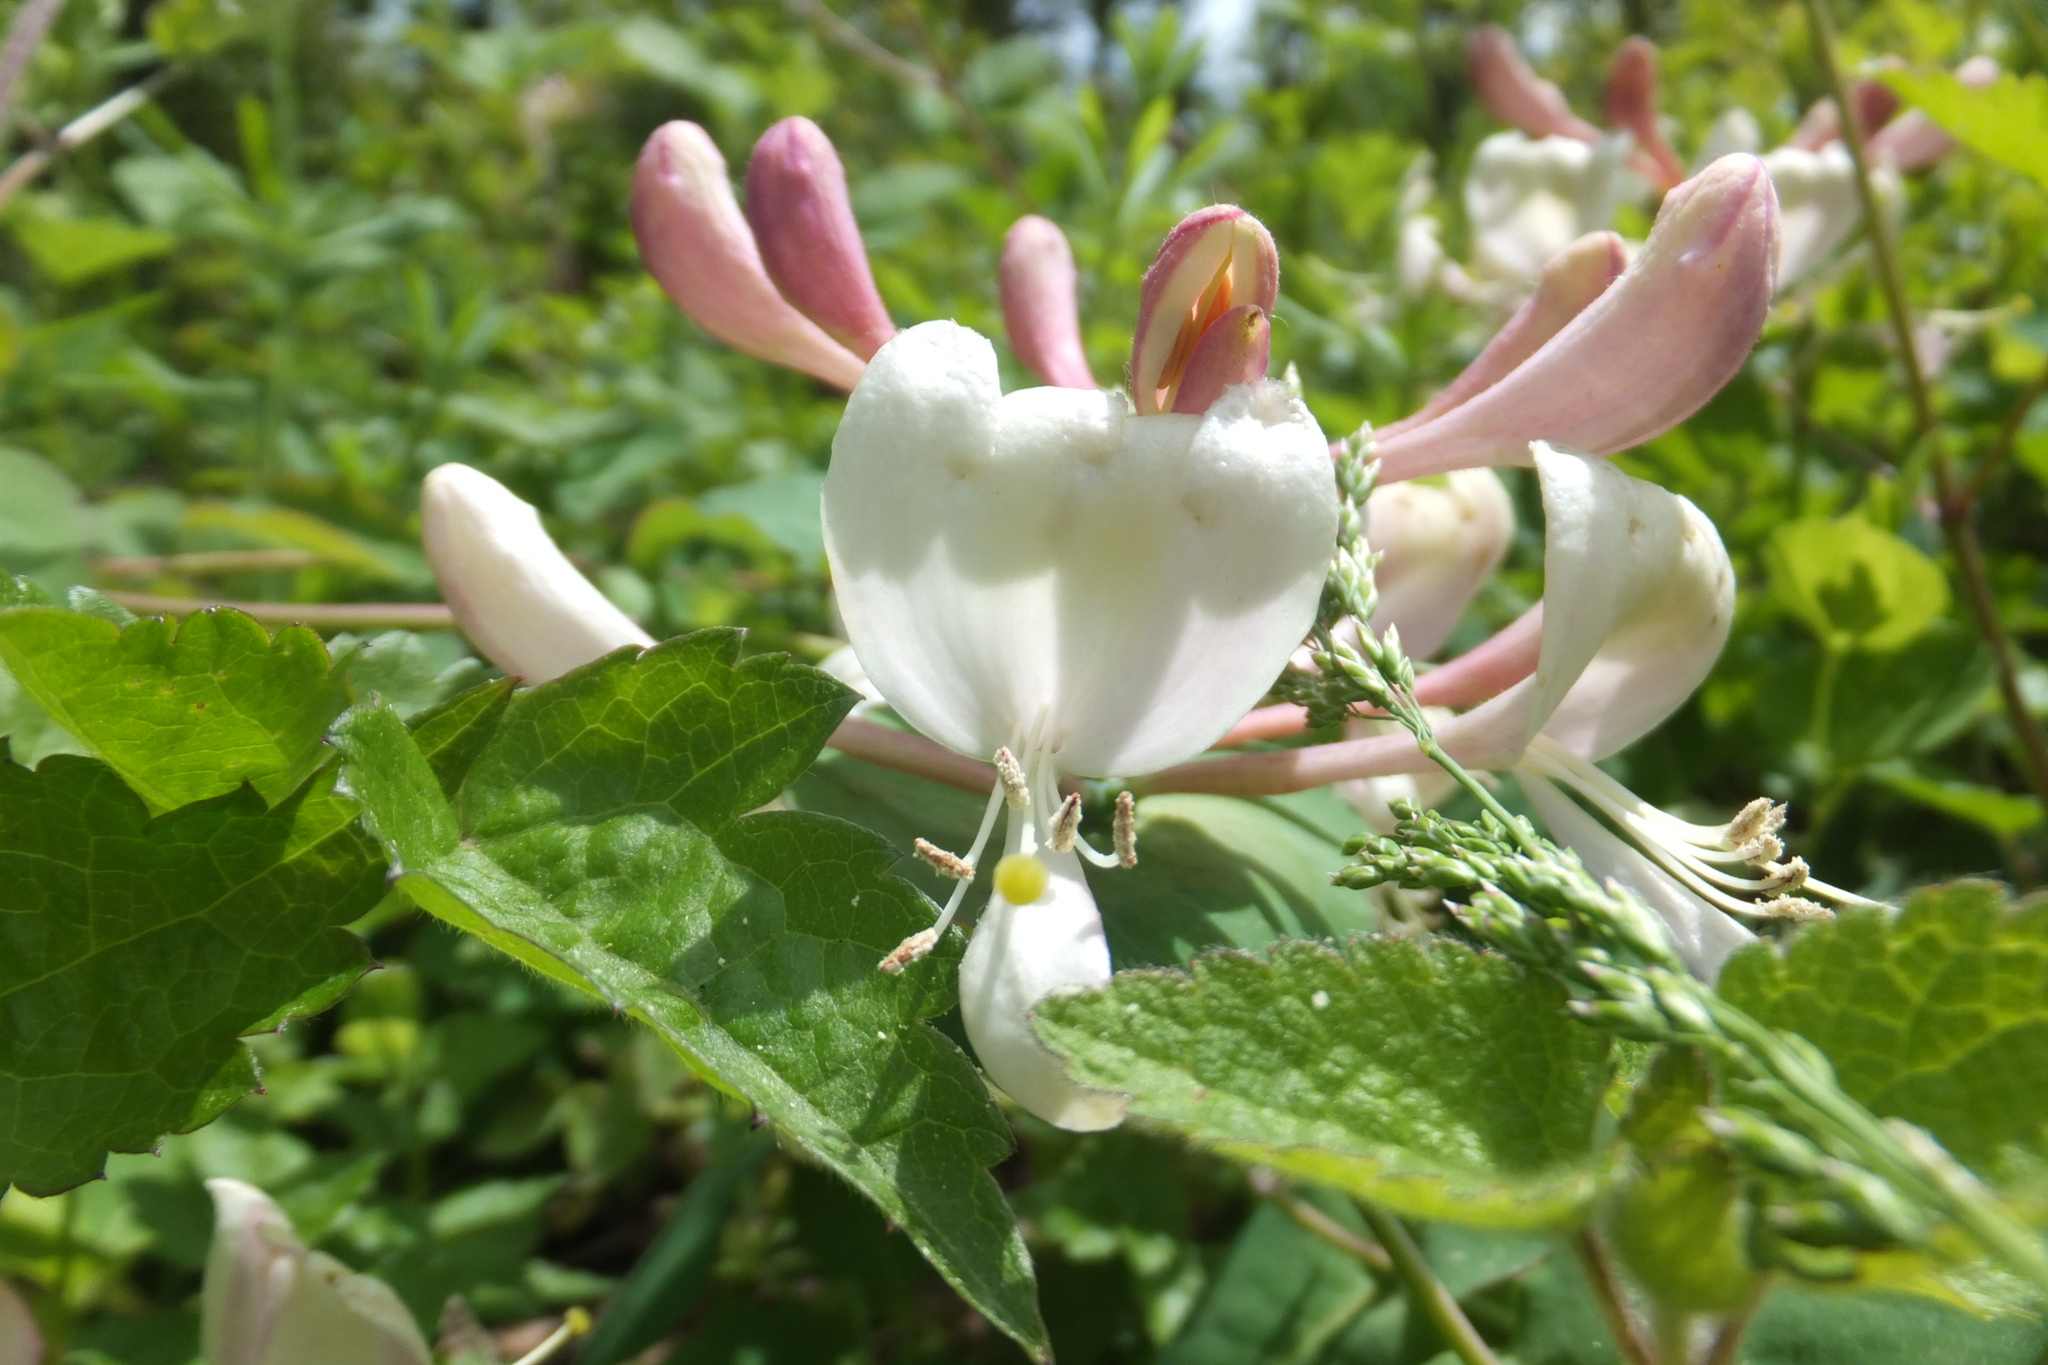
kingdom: Plantae
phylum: Tracheophyta
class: Magnoliopsida
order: Dipsacales
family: Caprifoliaceae
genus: Lonicera
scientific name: Lonicera caprifolium
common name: Perfoliate honeysuckle
